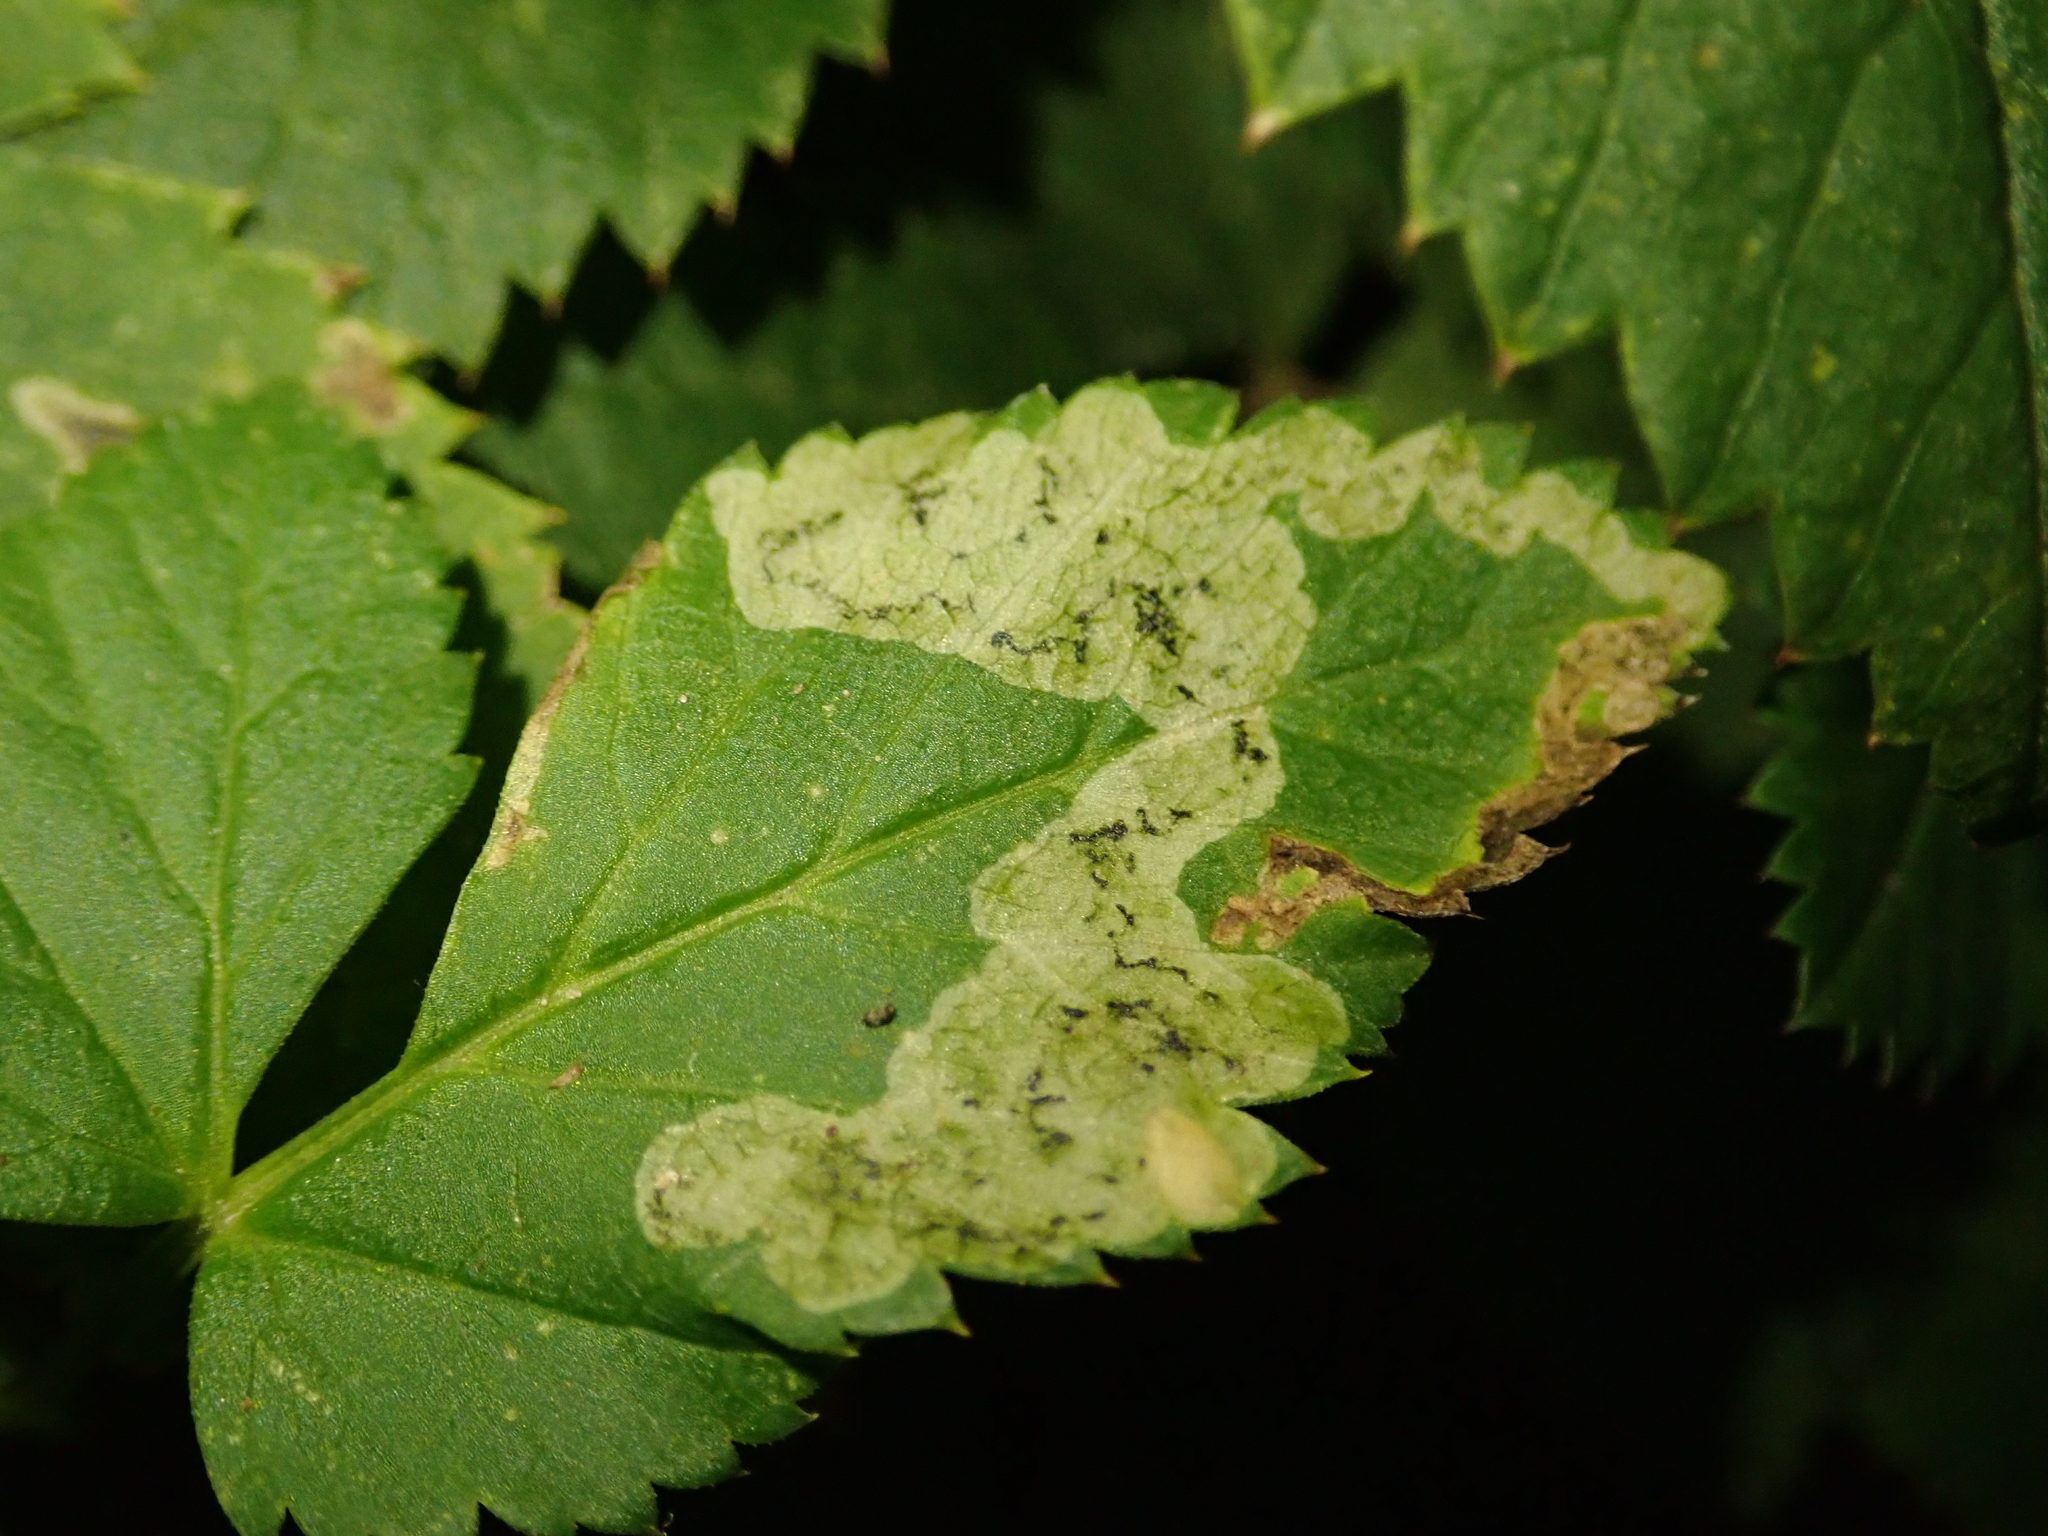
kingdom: Animalia
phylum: Arthropoda
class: Insecta
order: Diptera
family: Agromyzidae
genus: Phytomyza
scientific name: Phytomyza obscurella
